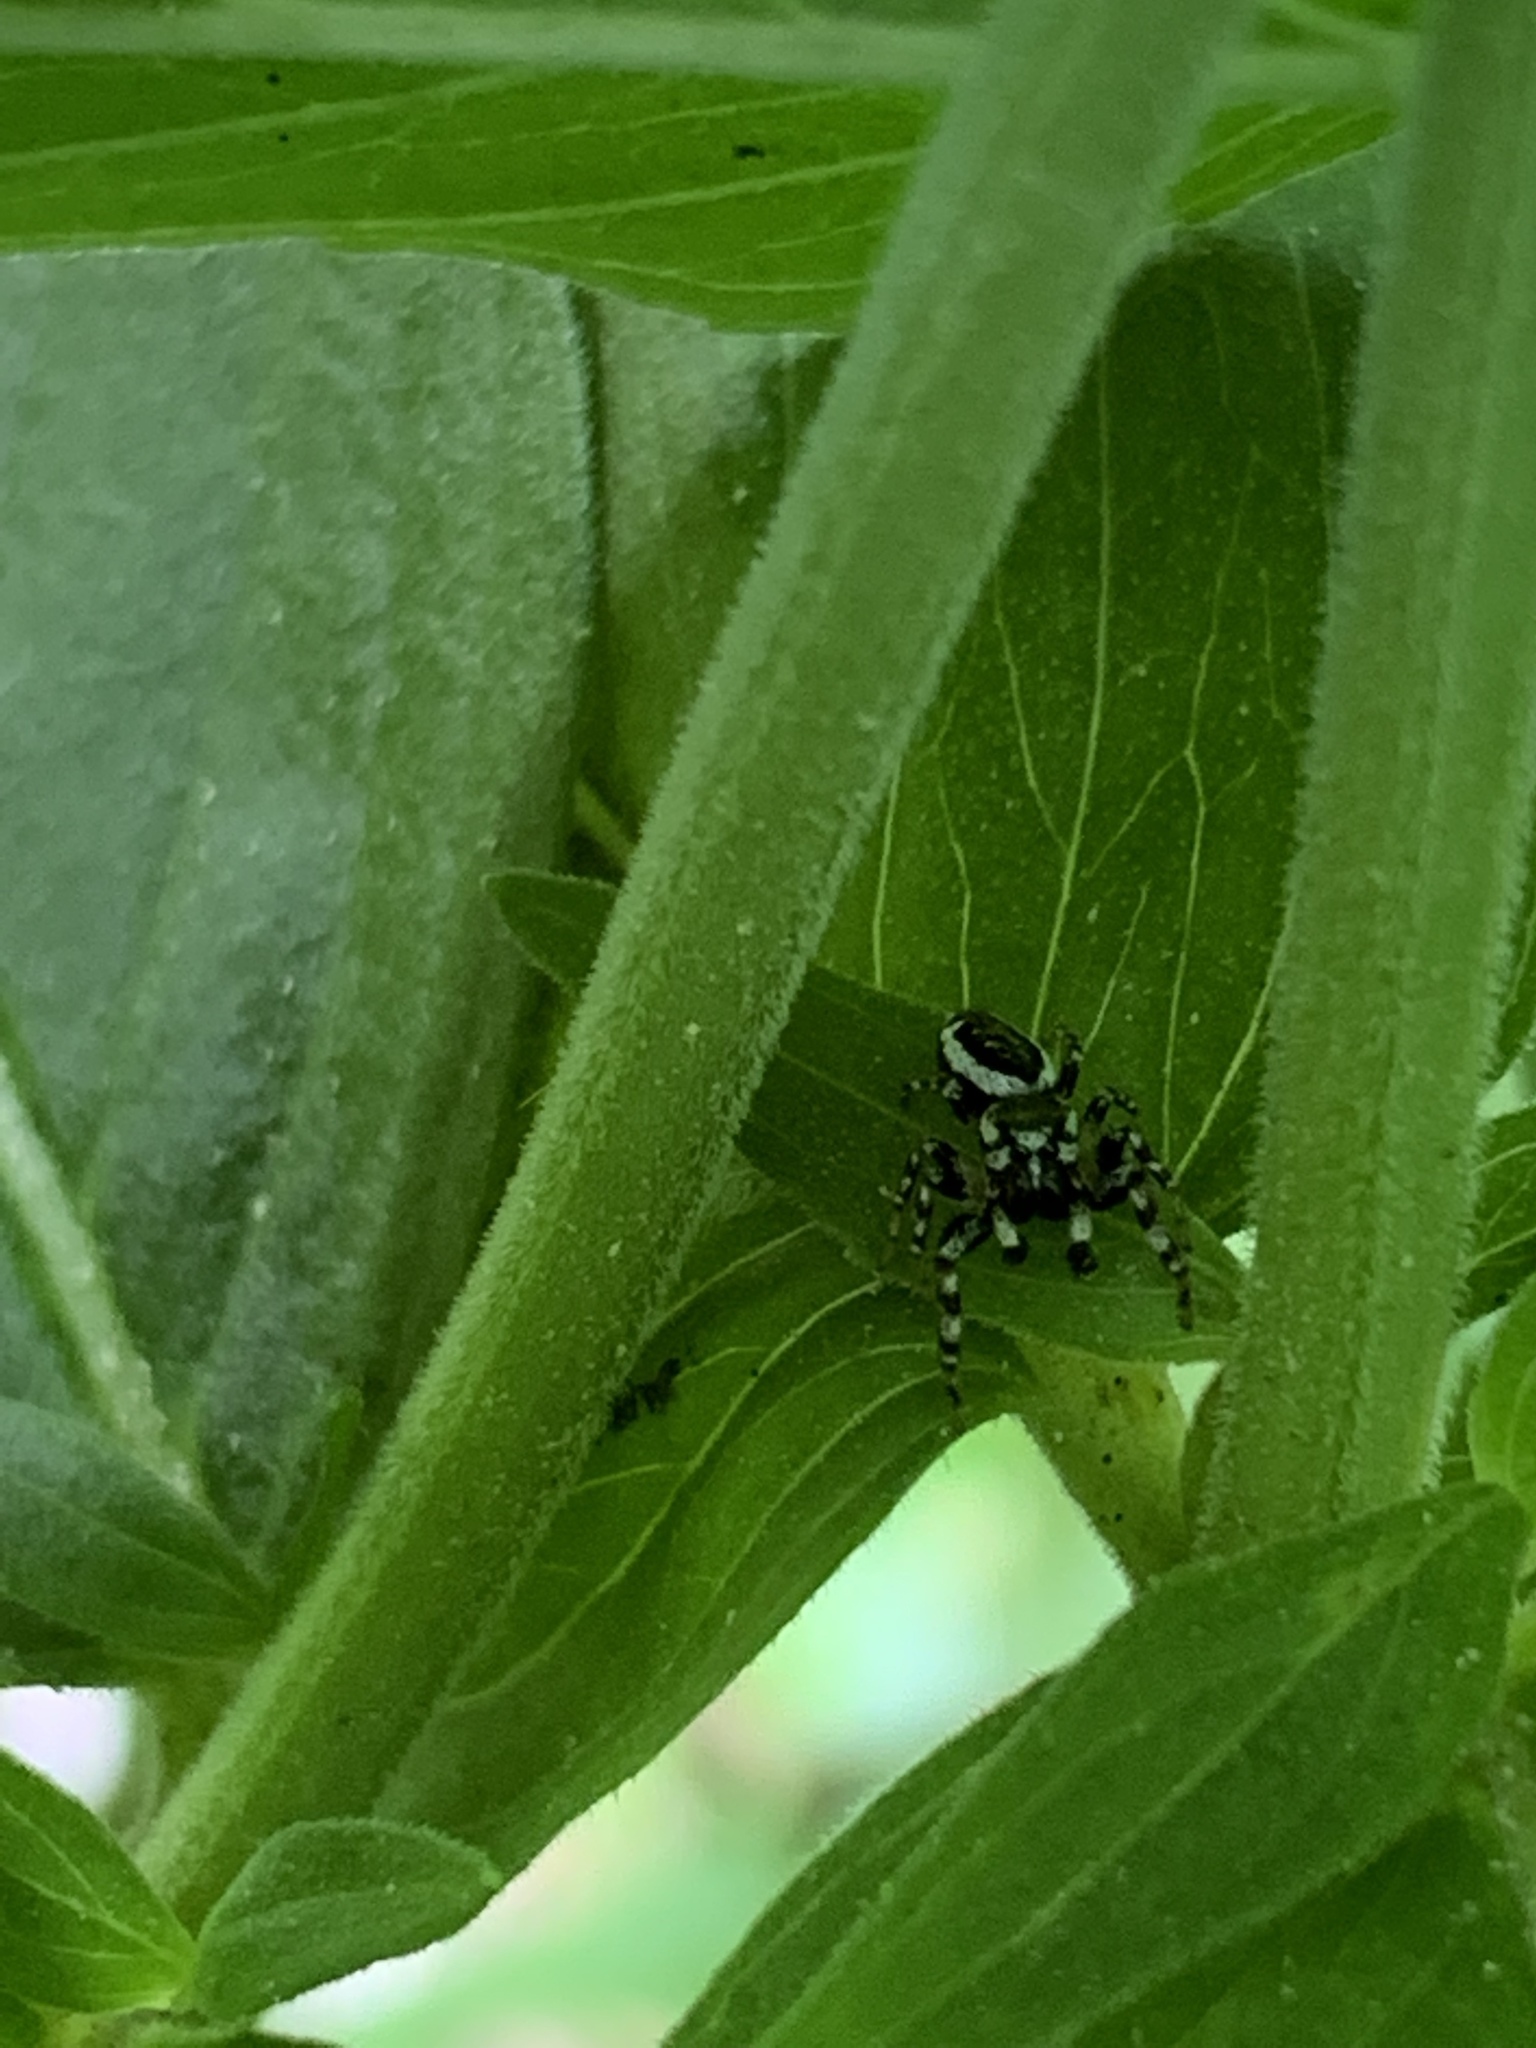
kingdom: Animalia
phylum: Arthropoda
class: Arachnida
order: Araneae
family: Salticidae
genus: Pelegrina
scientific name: Pelegrina proterva
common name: Common white-cheeked jumping spider
